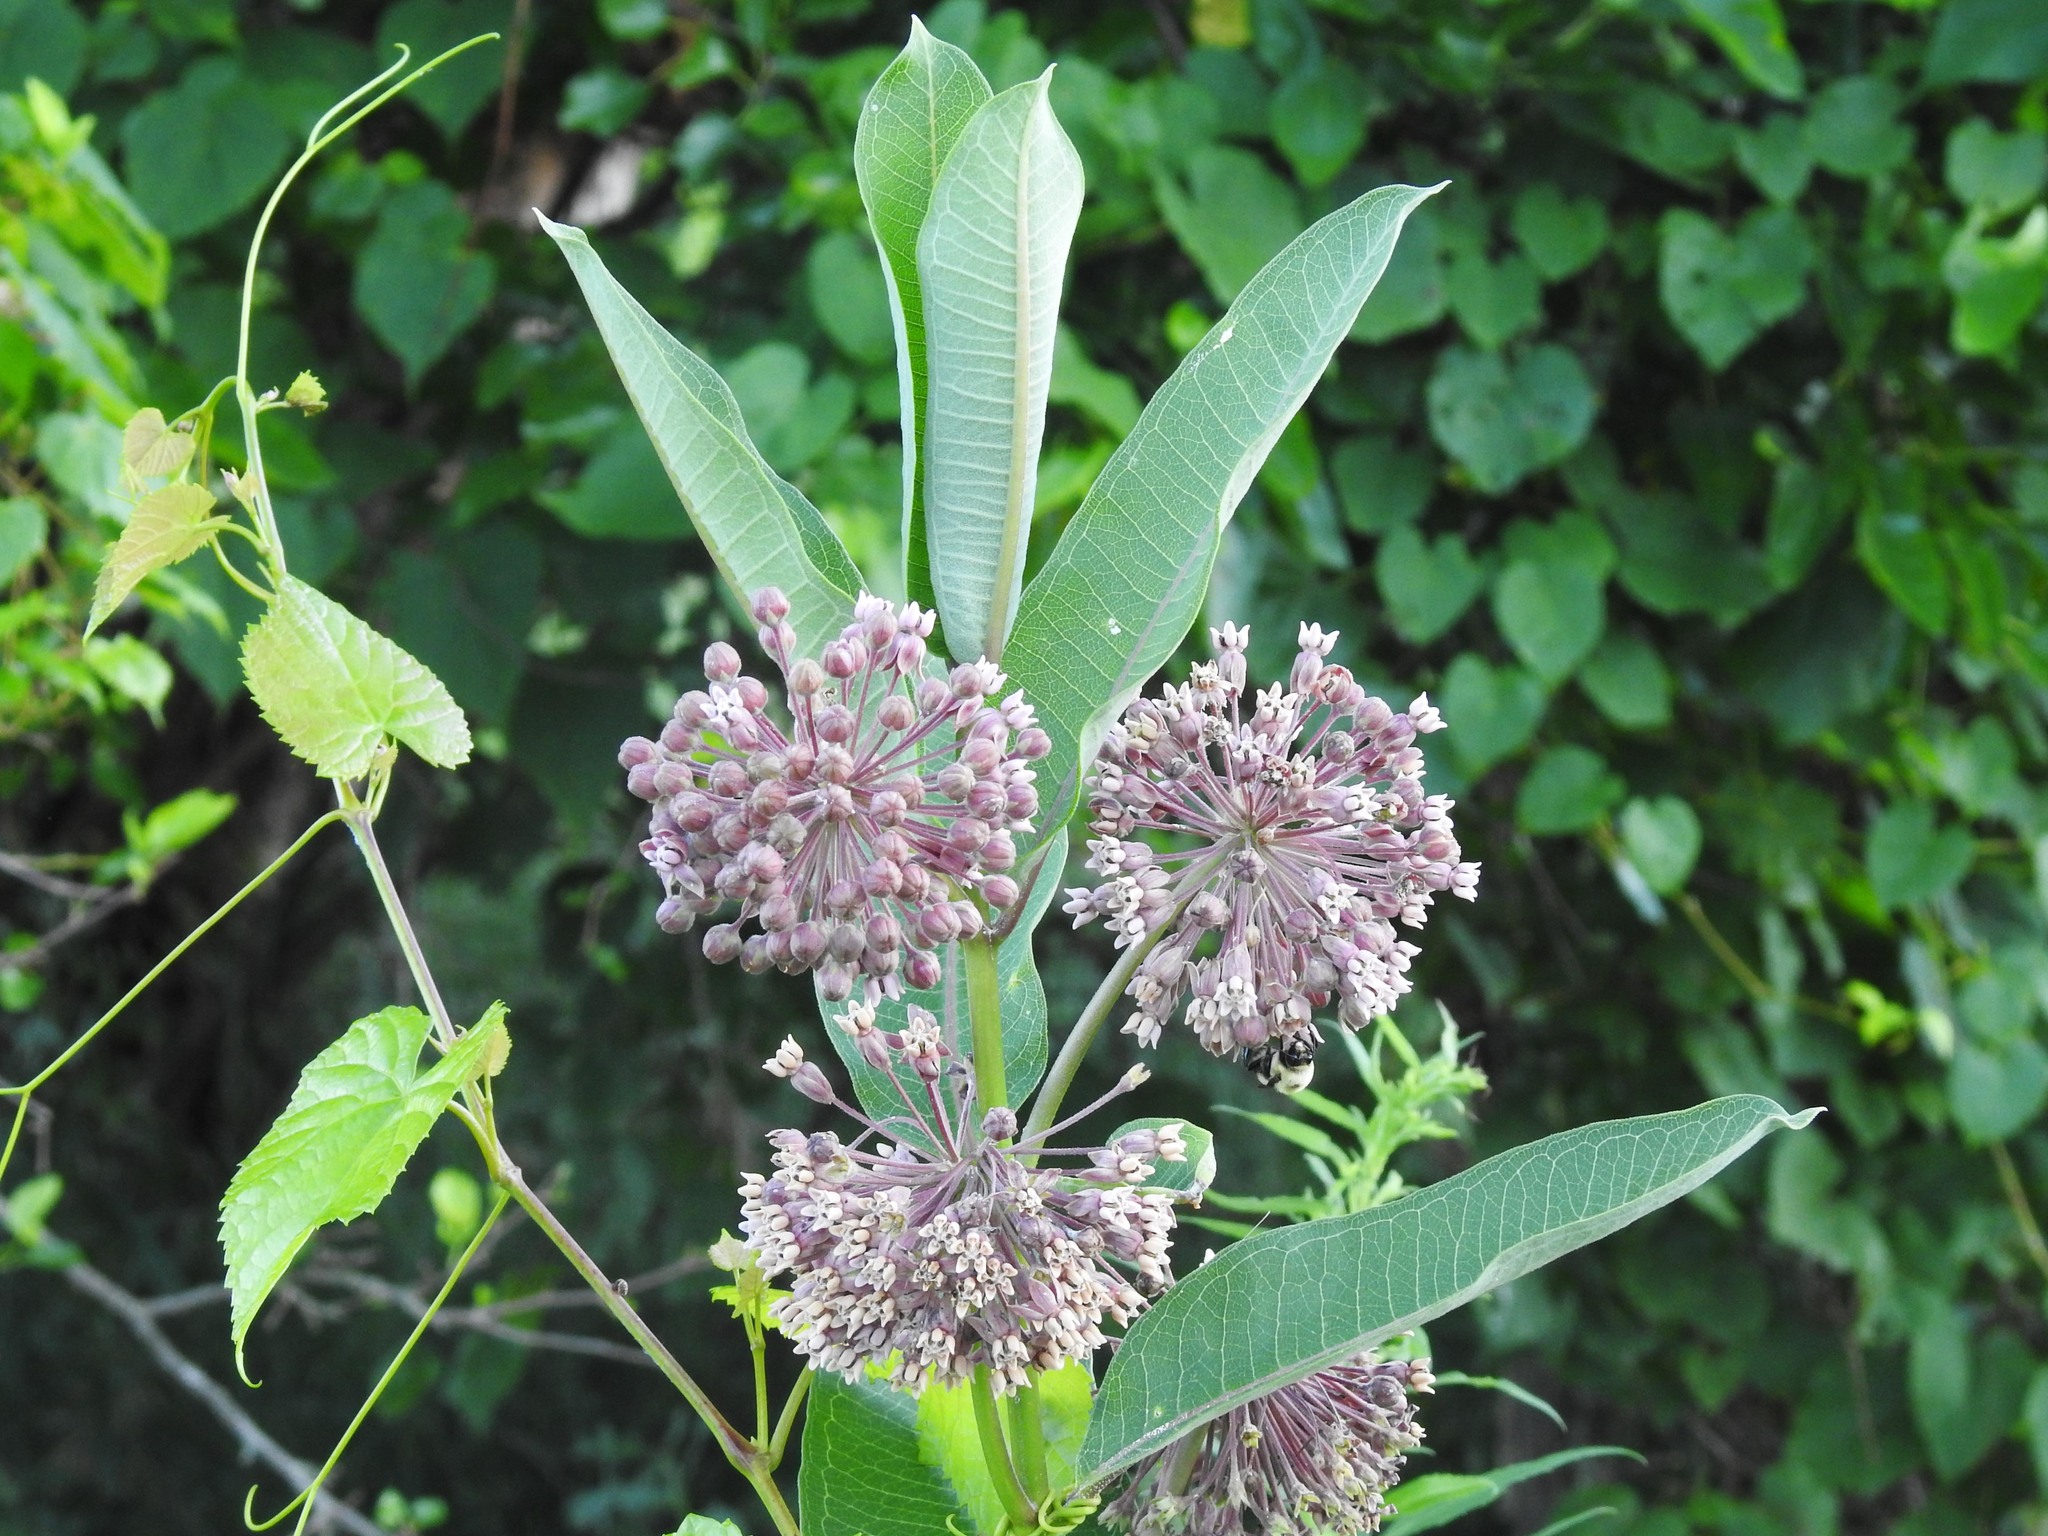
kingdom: Plantae
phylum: Tracheophyta
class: Magnoliopsida
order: Gentianales
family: Apocynaceae
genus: Asclepias
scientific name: Asclepias syriaca
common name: Common milkweed
